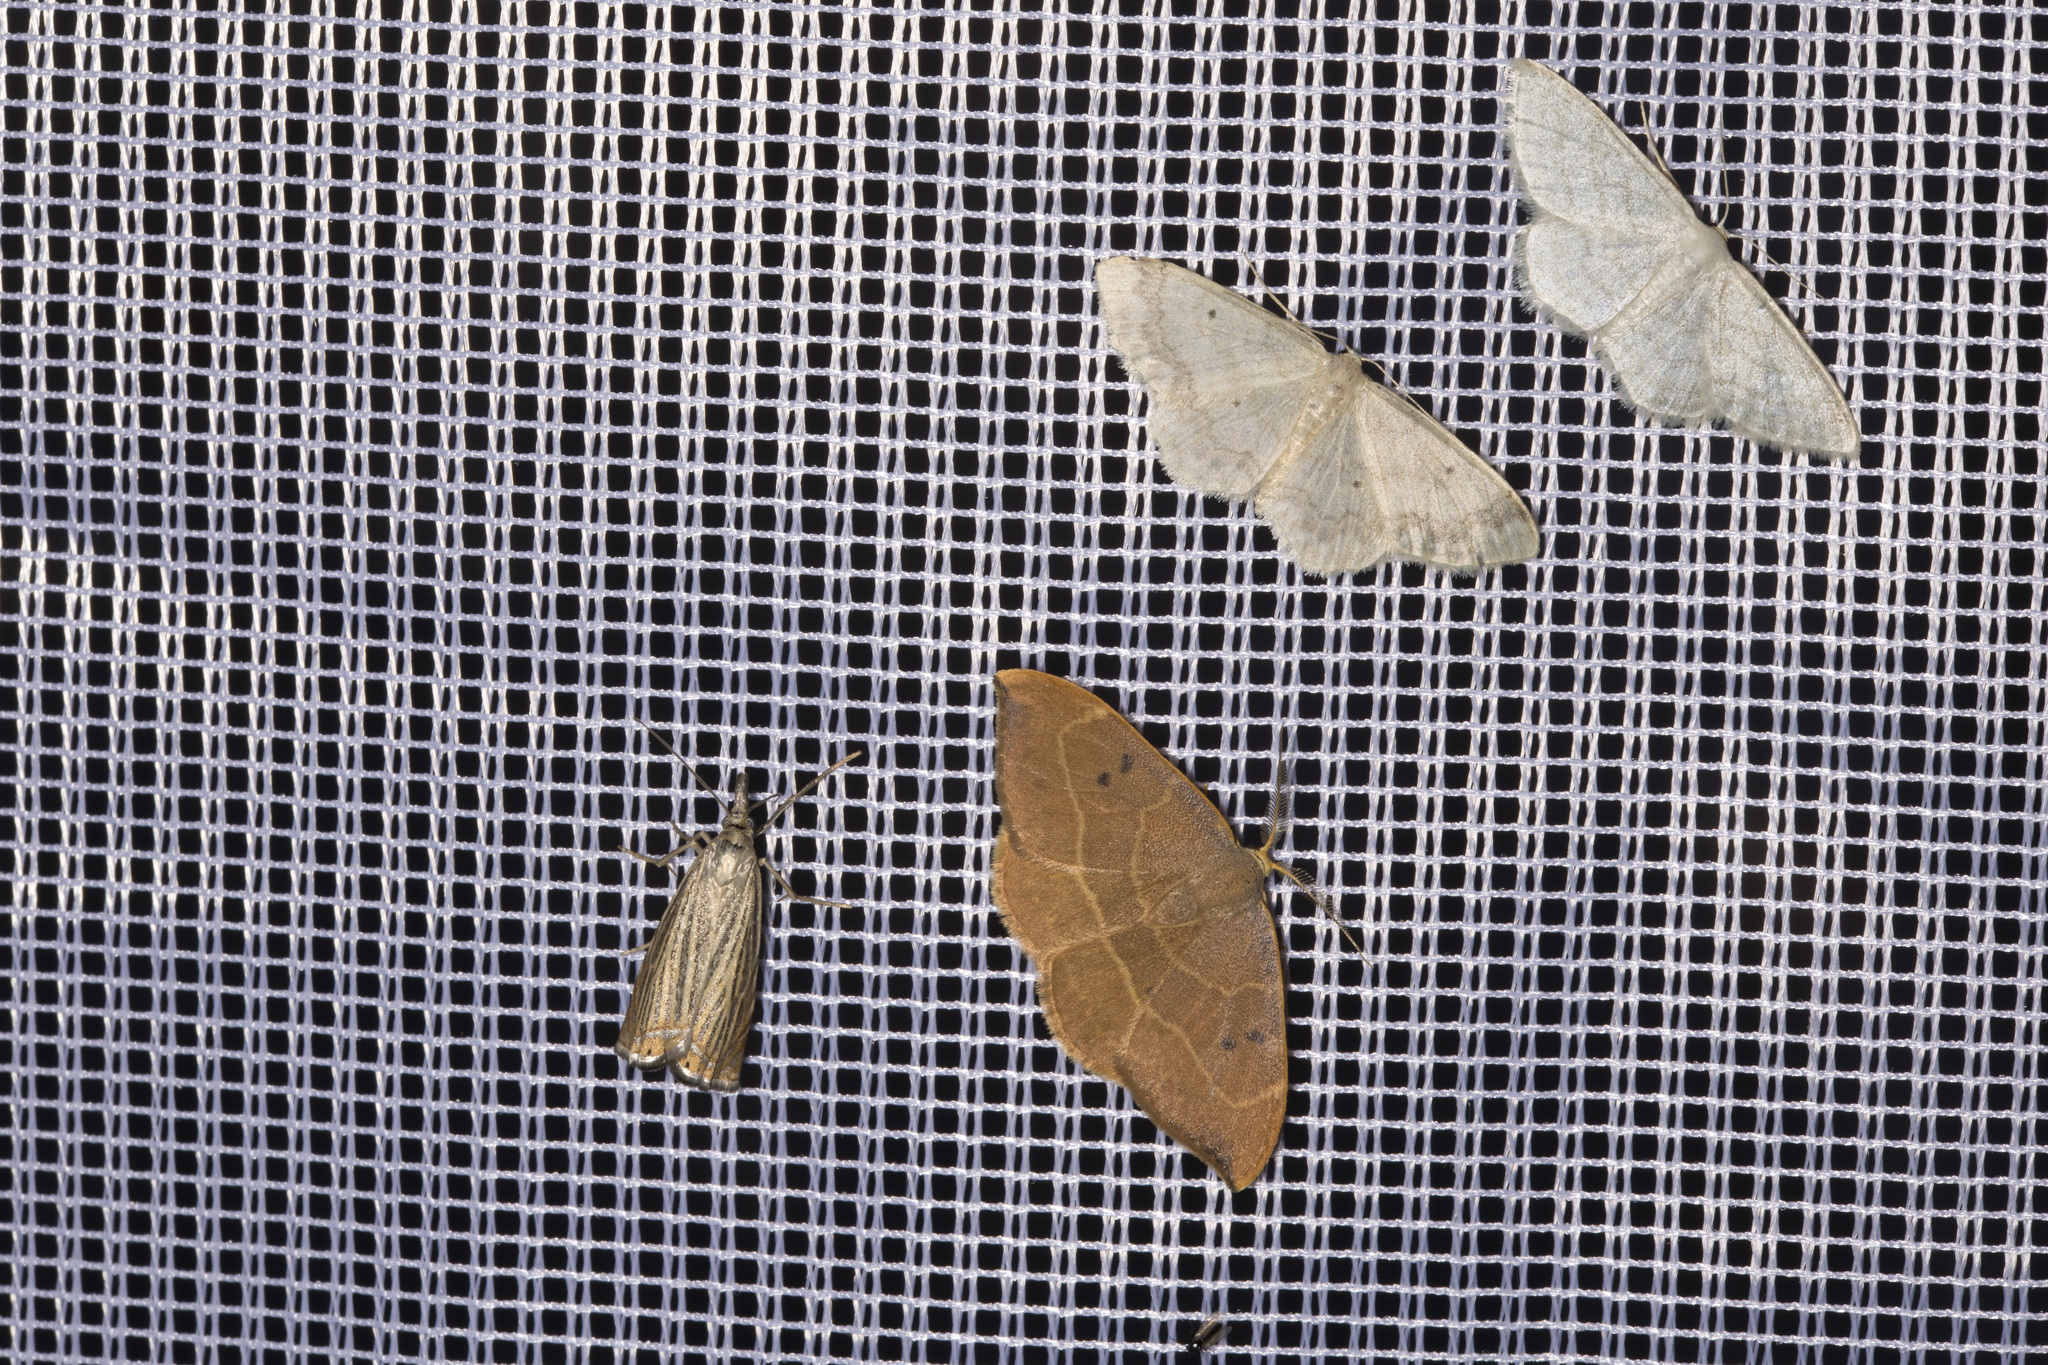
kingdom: Animalia
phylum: Arthropoda
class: Insecta
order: Lepidoptera
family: Geometridae
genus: Idaea
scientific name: Idaea subsericeata
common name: Satin wave
